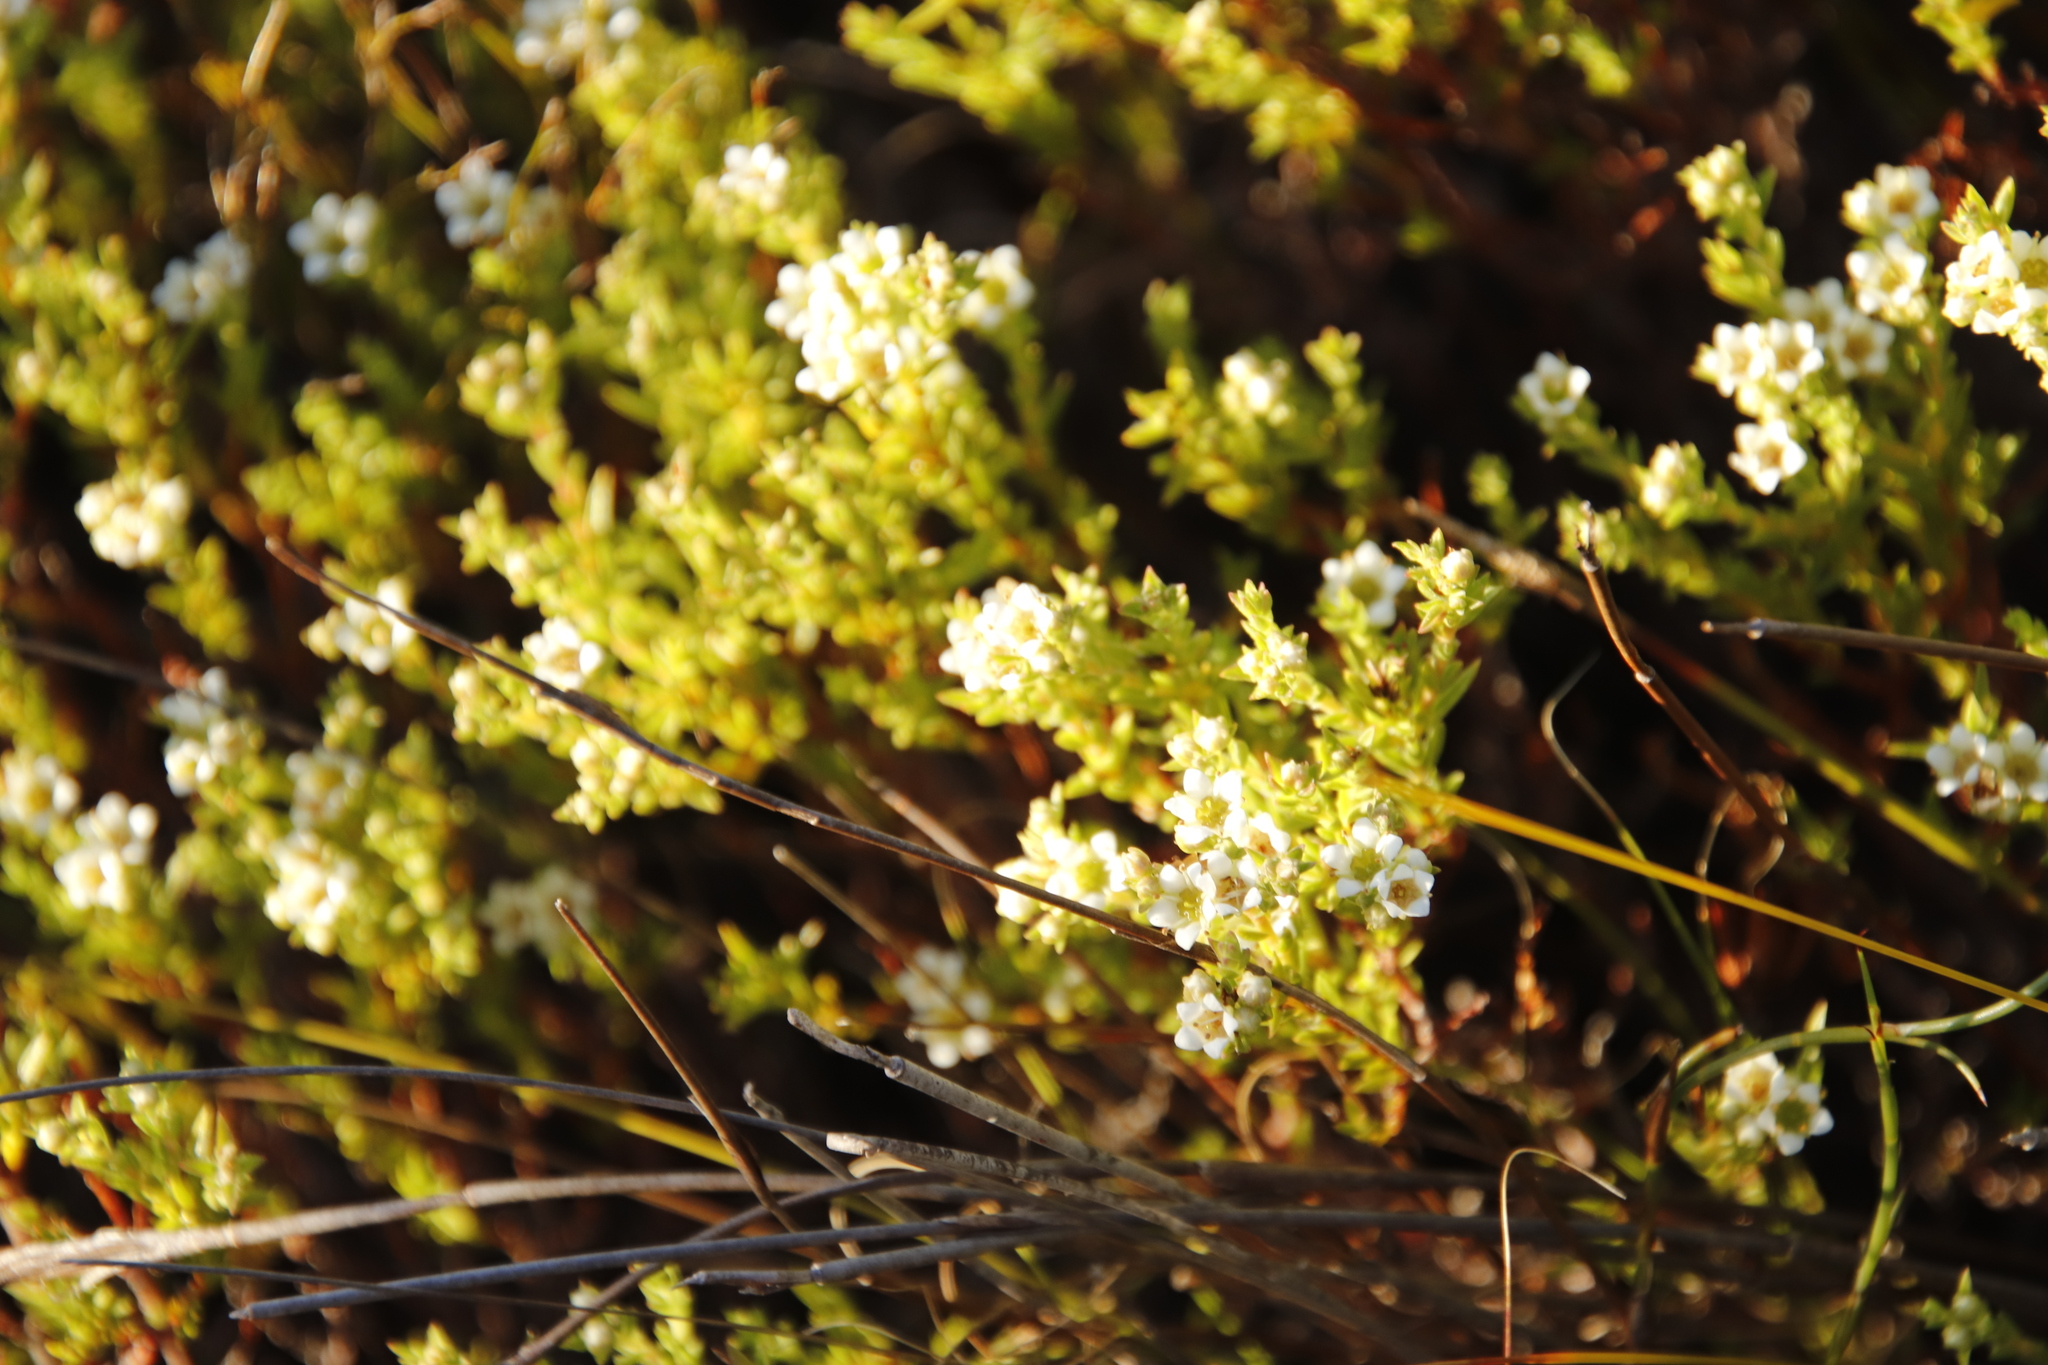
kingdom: Plantae
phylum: Tracheophyta
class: Magnoliopsida
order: Sapindales
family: Rutaceae
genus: Diosma
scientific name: Diosma oppositifolia
